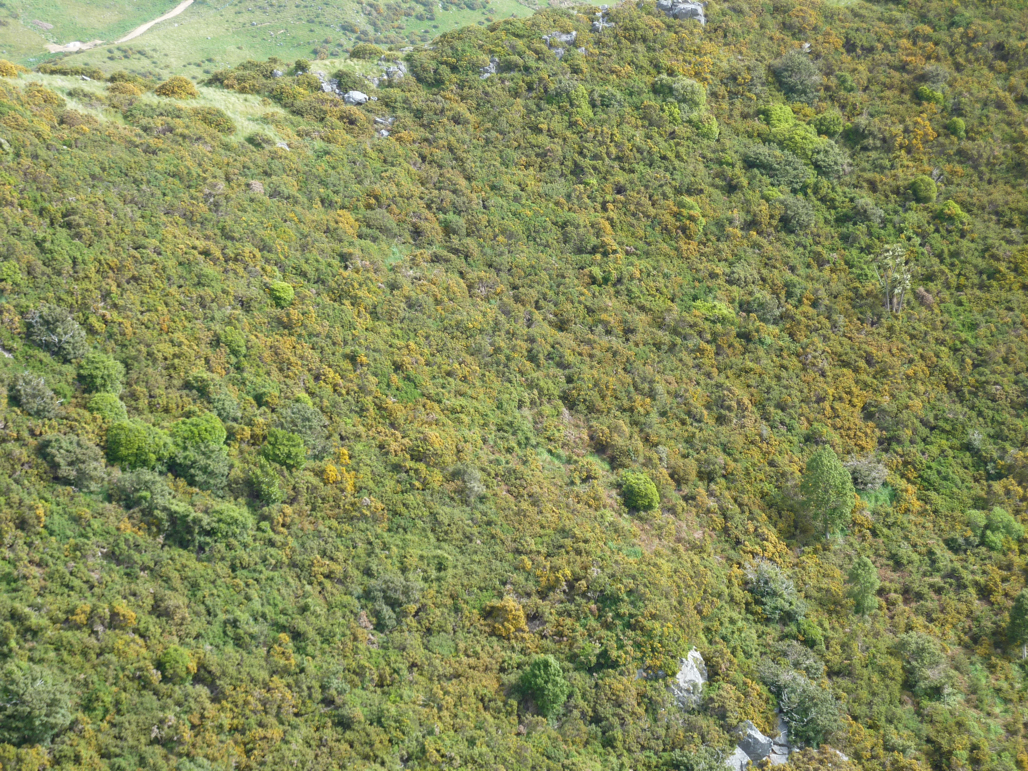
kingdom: Plantae
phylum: Tracheophyta
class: Magnoliopsida
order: Fabales
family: Fabaceae
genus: Ulex
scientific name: Ulex europaeus
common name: Common gorse
